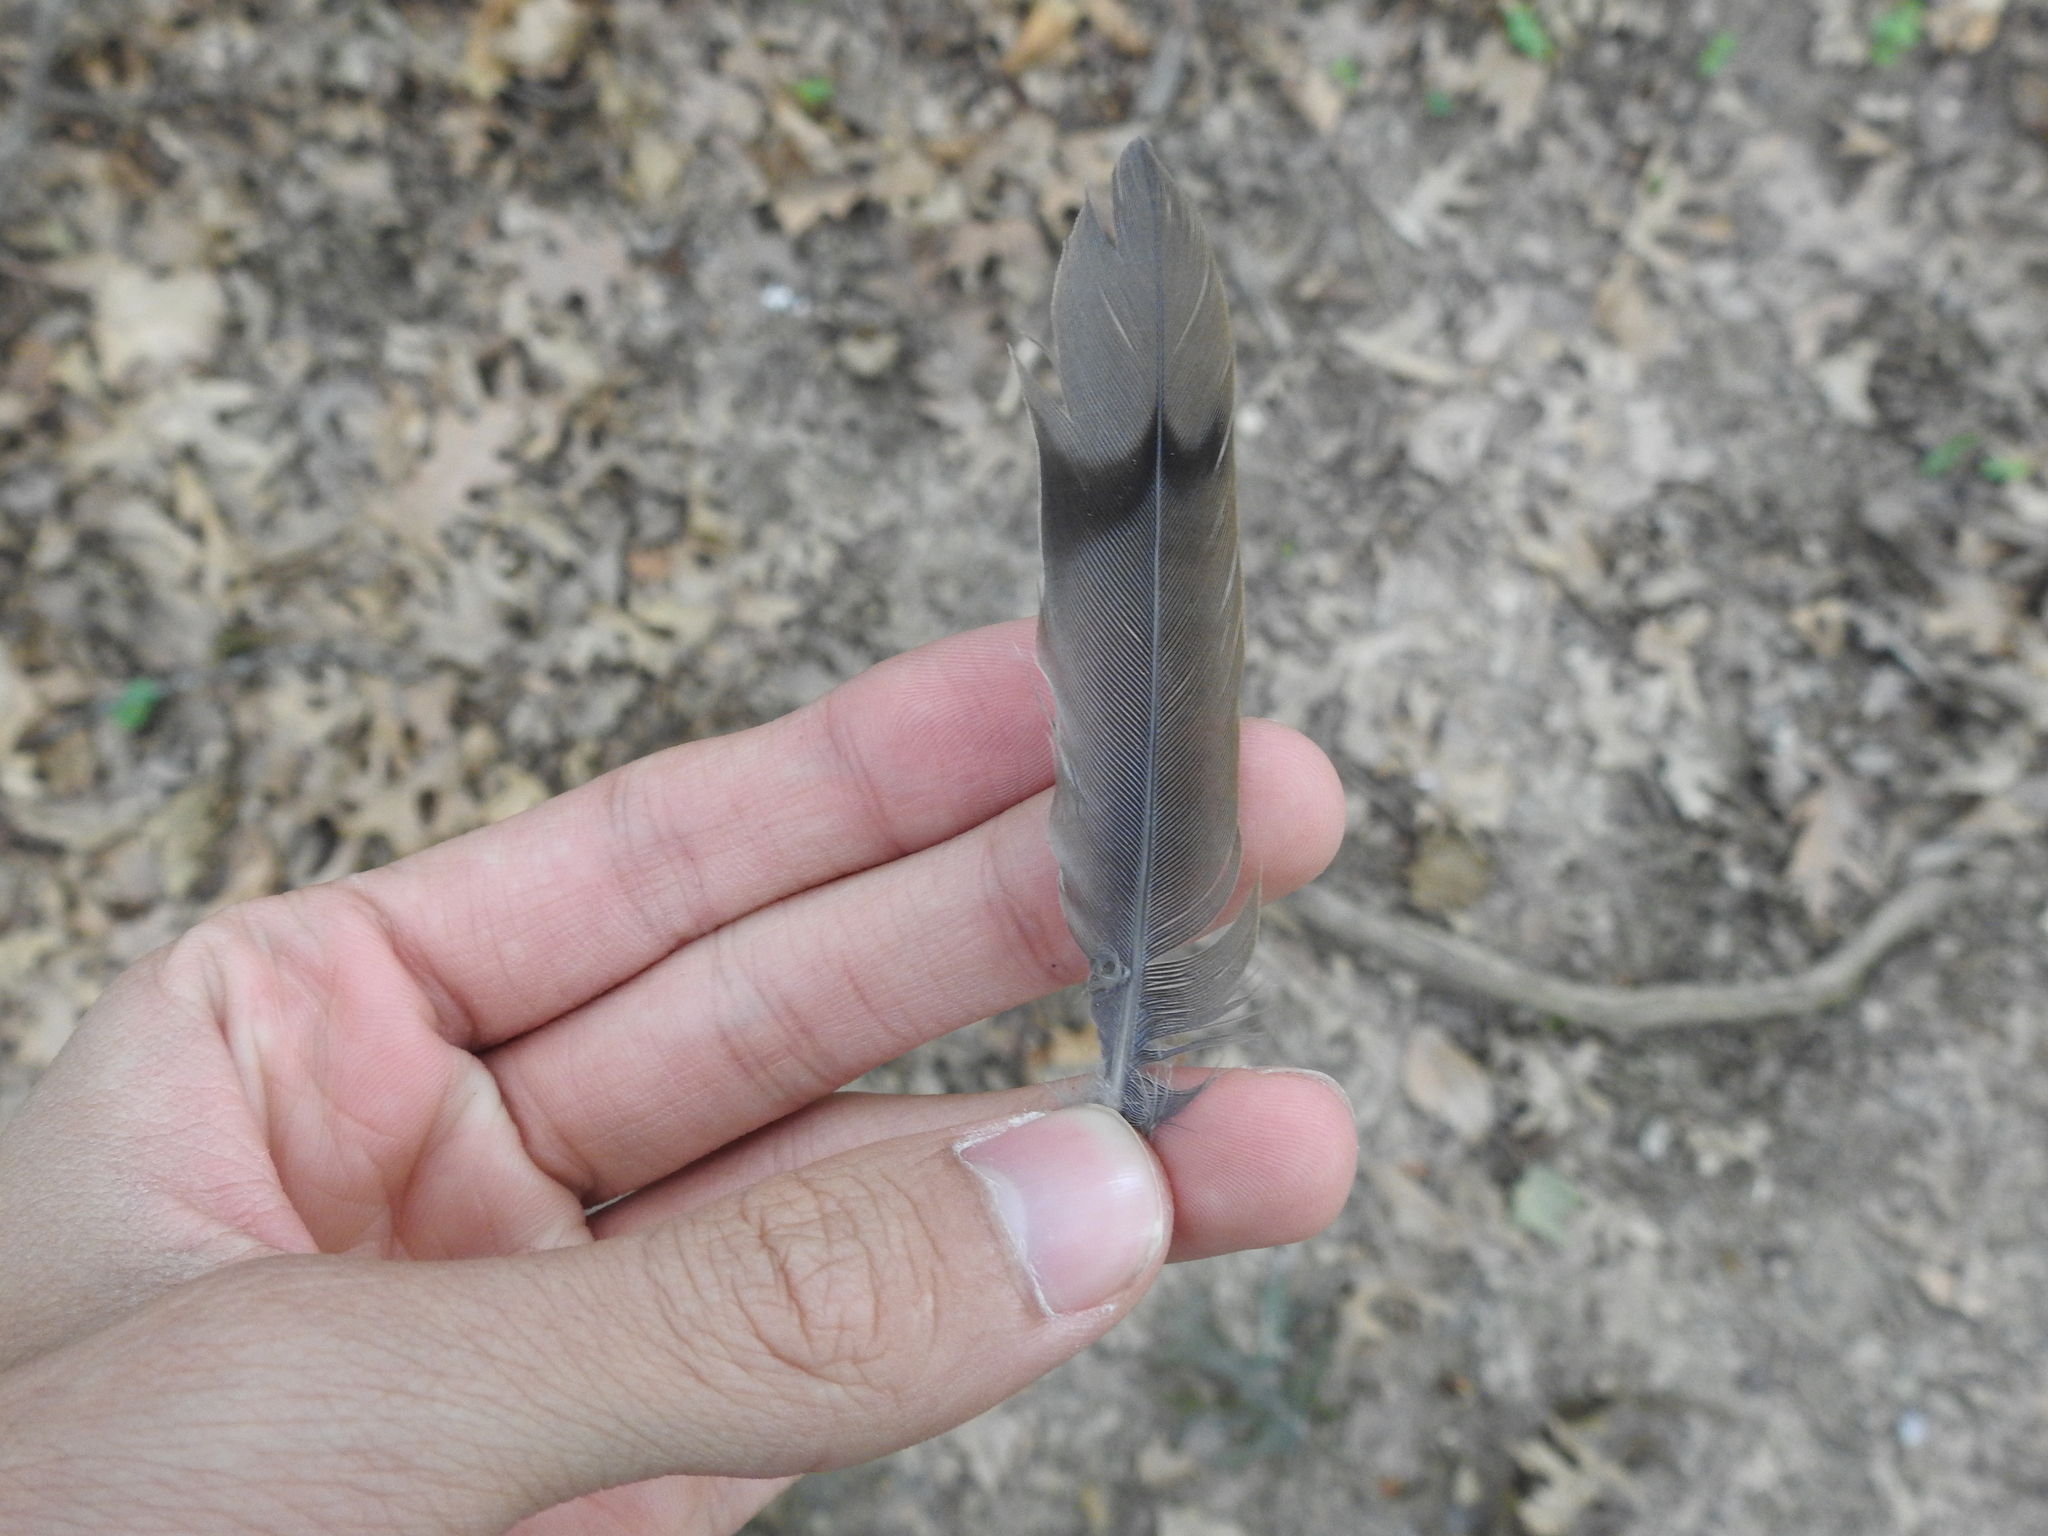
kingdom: Animalia
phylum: Chordata
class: Aves
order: Columbiformes
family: Columbidae
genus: Zenaida
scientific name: Zenaida macroura
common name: Mourning dove
